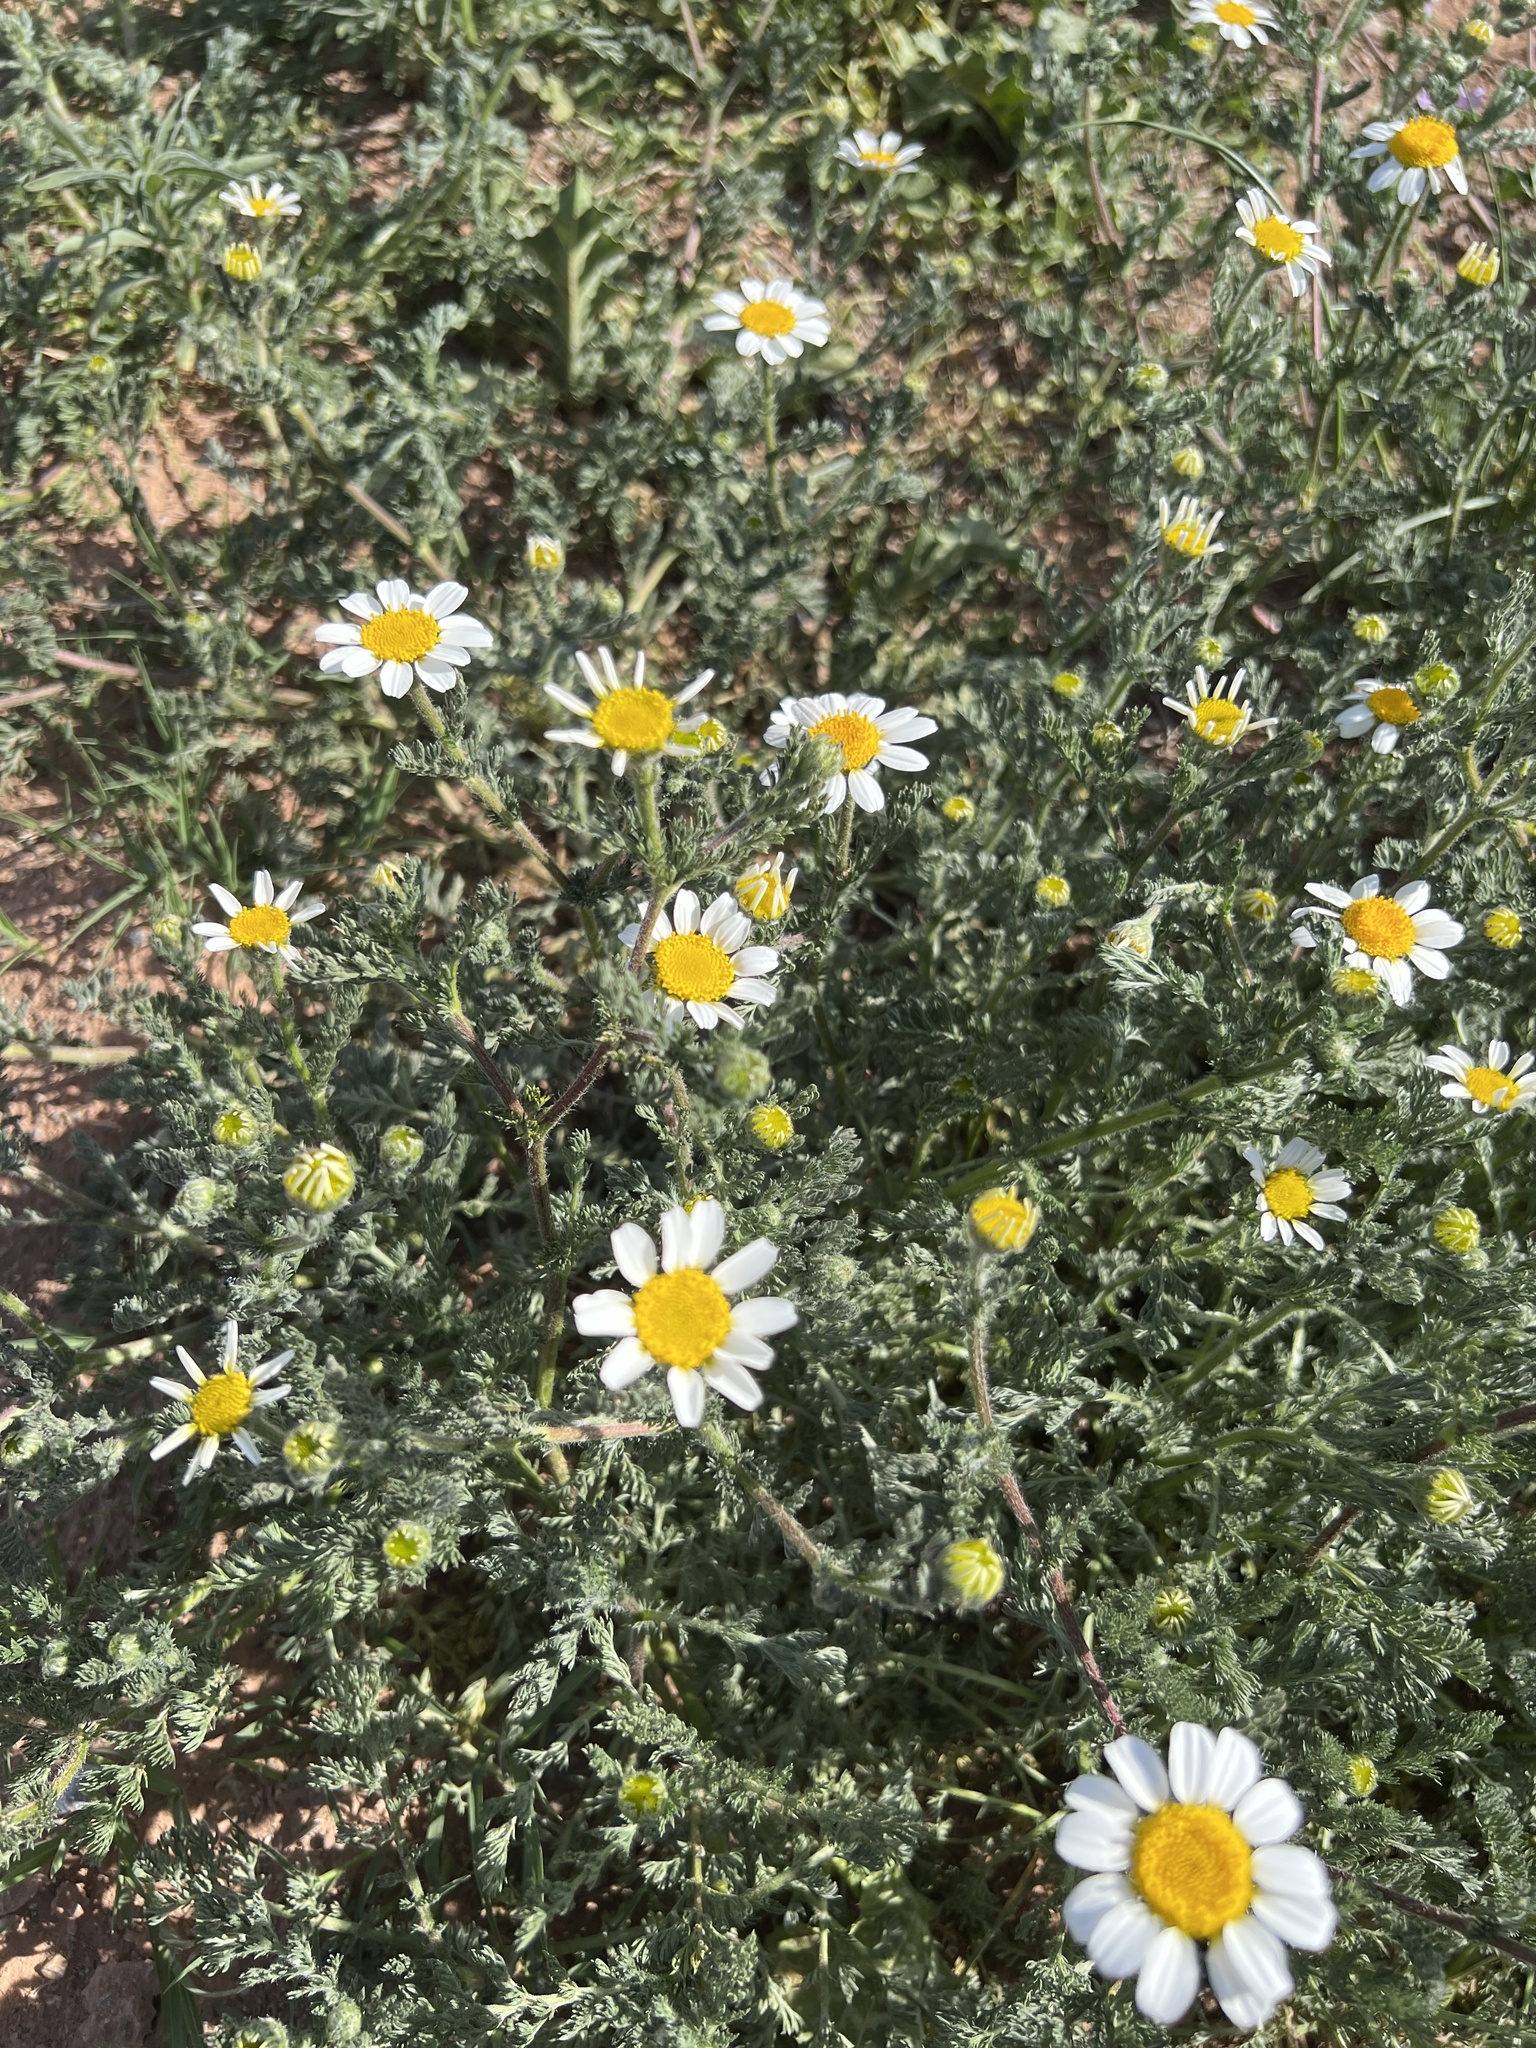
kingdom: Plantae
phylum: Tracheophyta
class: Magnoliopsida
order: Asterales
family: Asteraceae
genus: Anacyclus
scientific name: Anacyclus clavatus
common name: Whitebuttons
